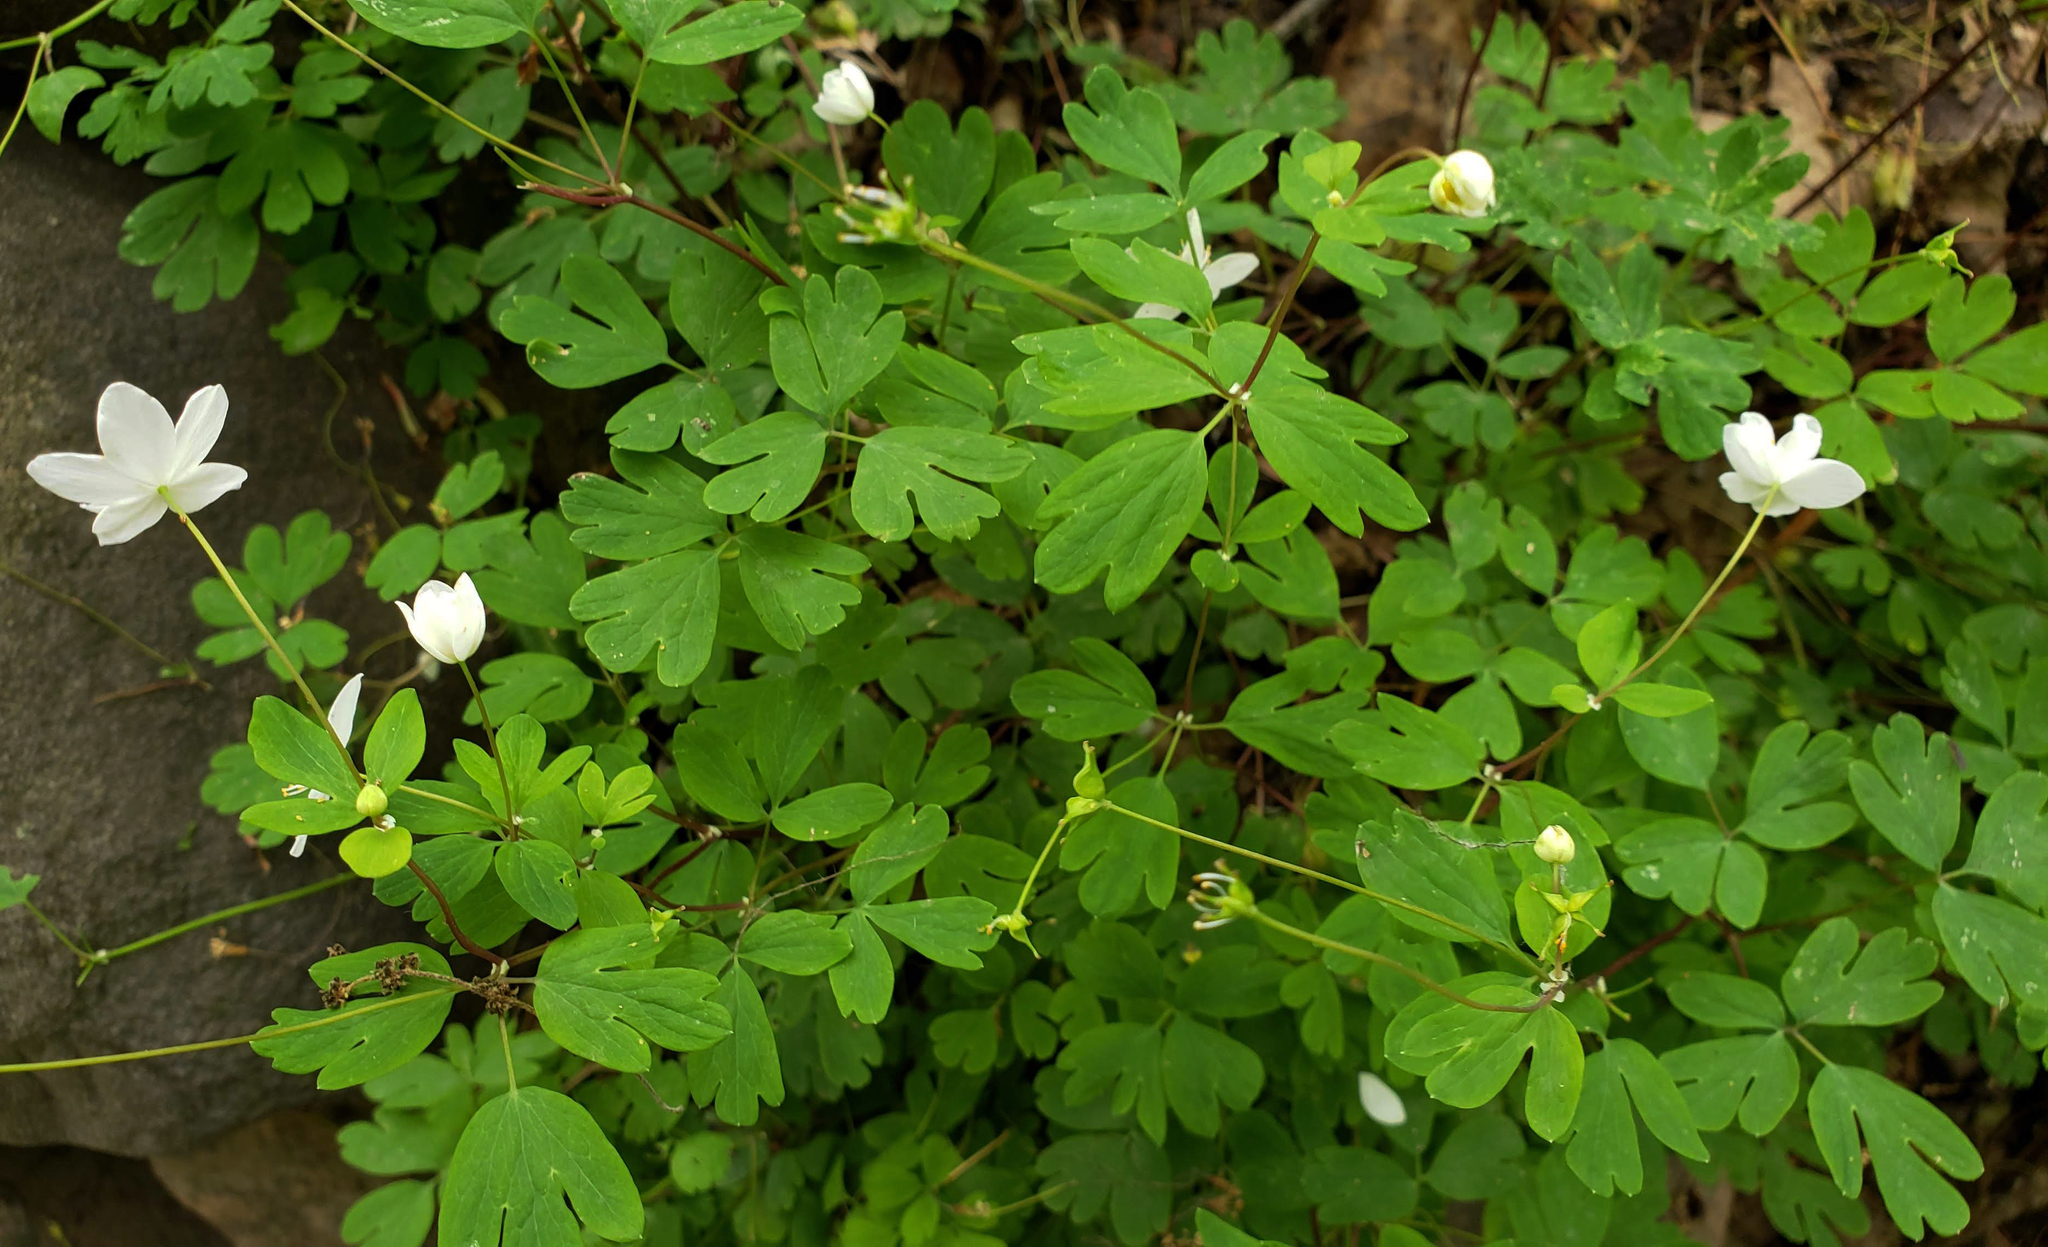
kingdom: Plantae
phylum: Tracheophyta
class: Magnoliopsida
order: Ranunculales
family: Ranunculaceae
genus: Enemion
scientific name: Enemion biternatum
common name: Eastern false rue-anemone
